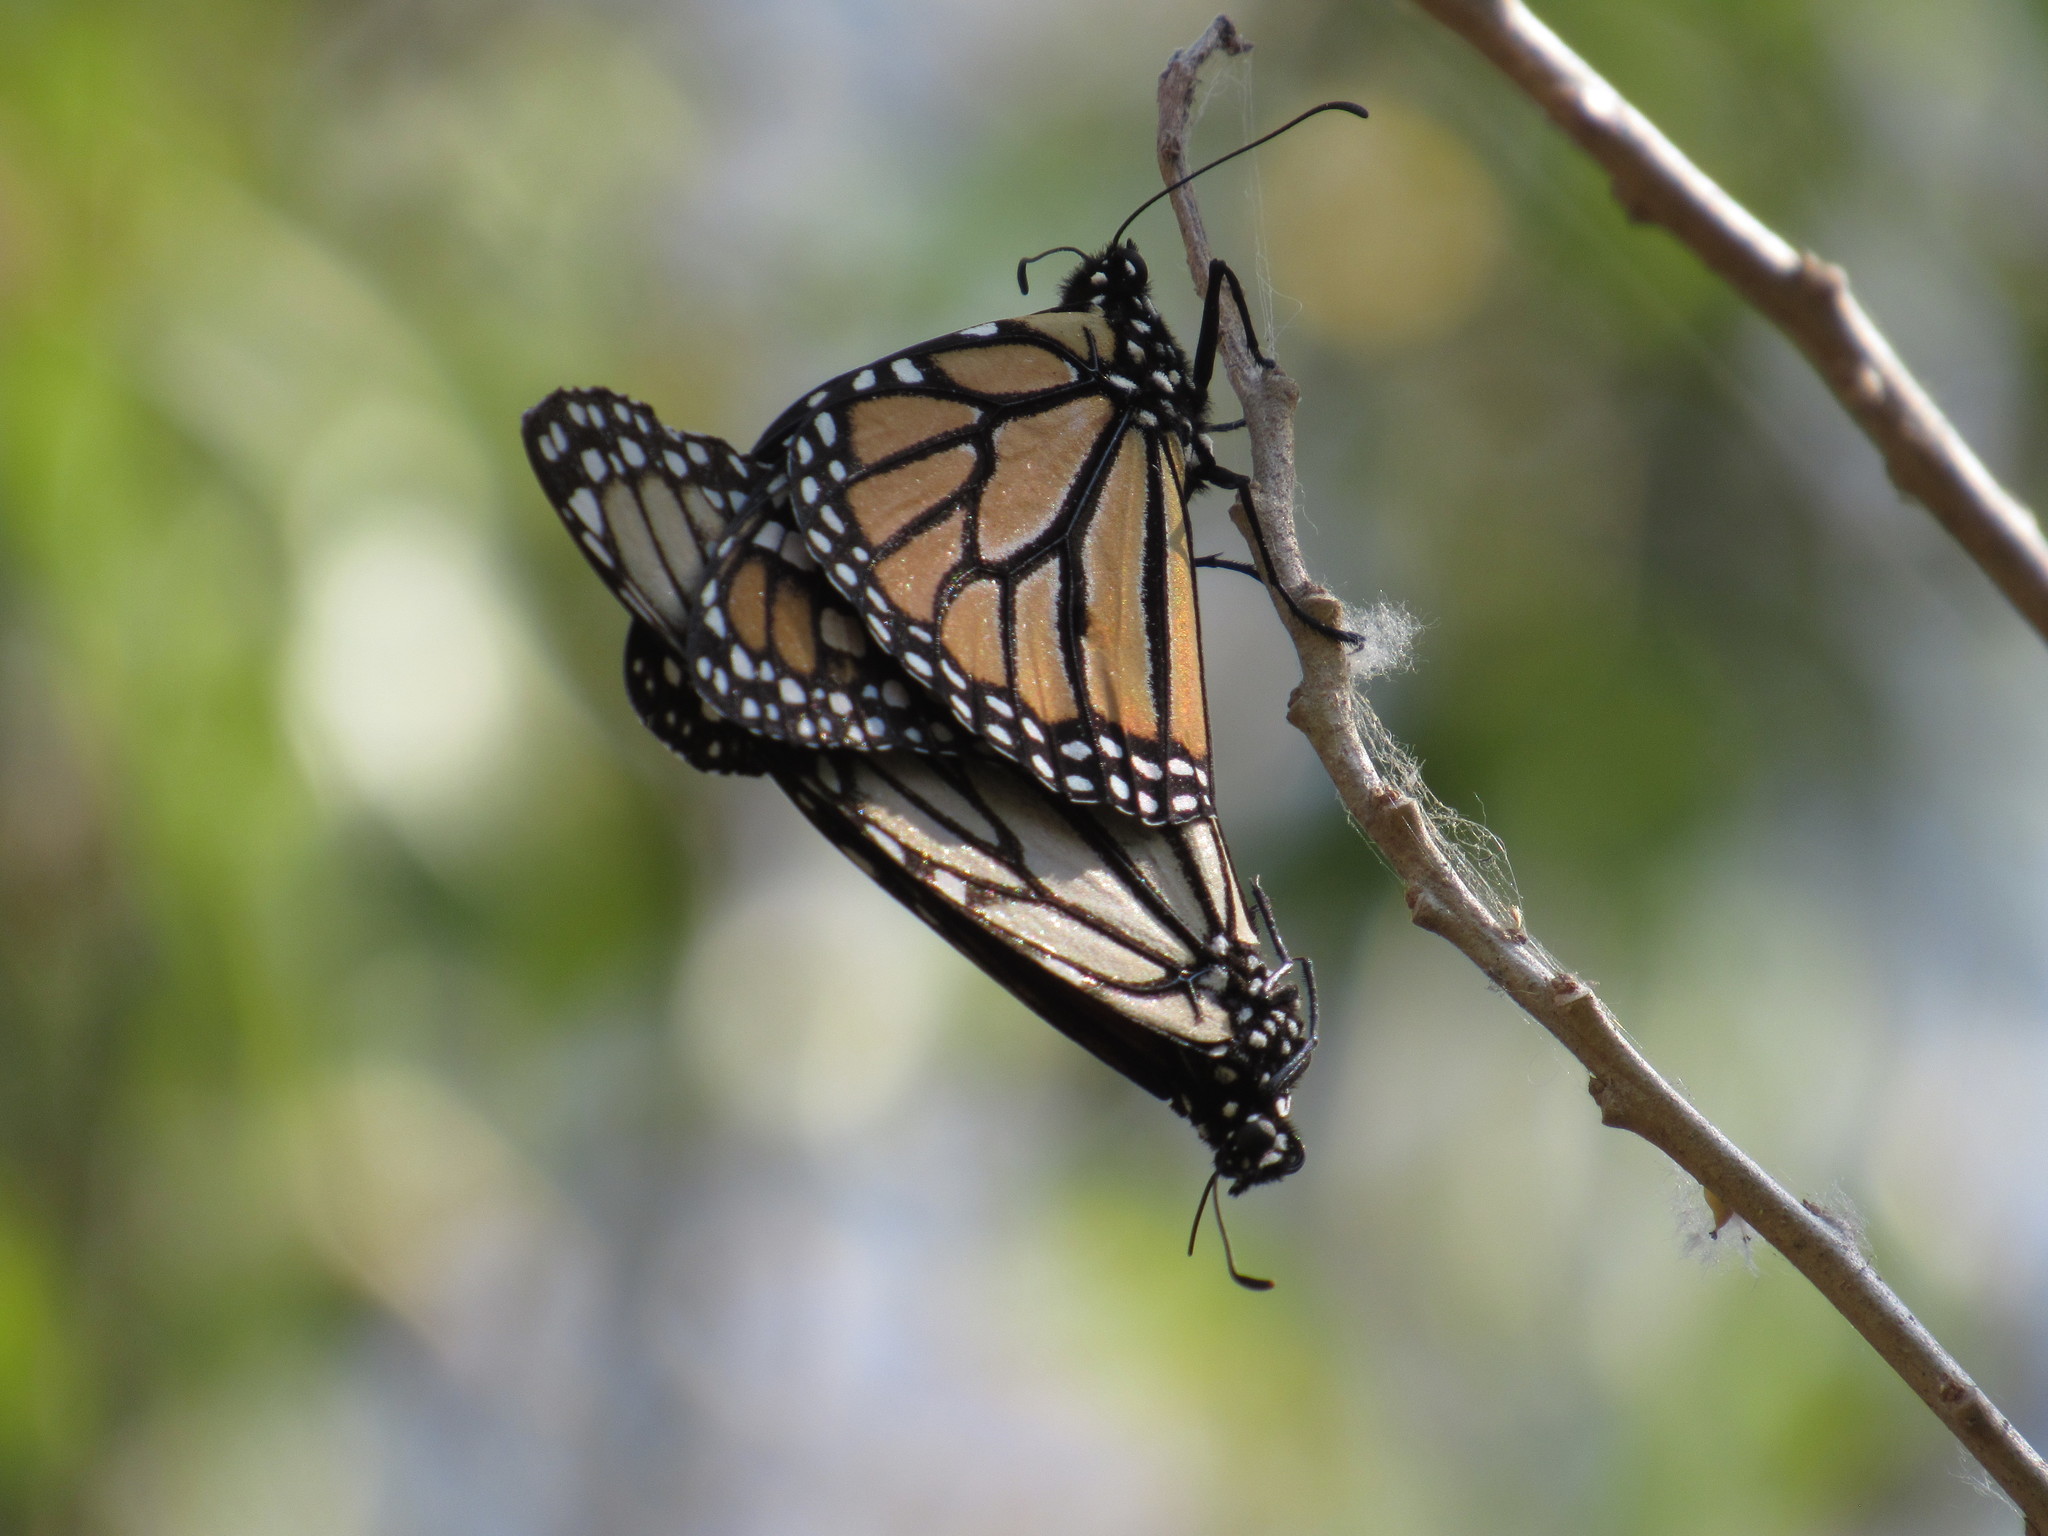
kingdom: Animalia
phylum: Arthropoda
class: Insecta
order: Lepidoptera
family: Nymphalidae
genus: Danaus
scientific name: Danaus plexippus
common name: Monarch
